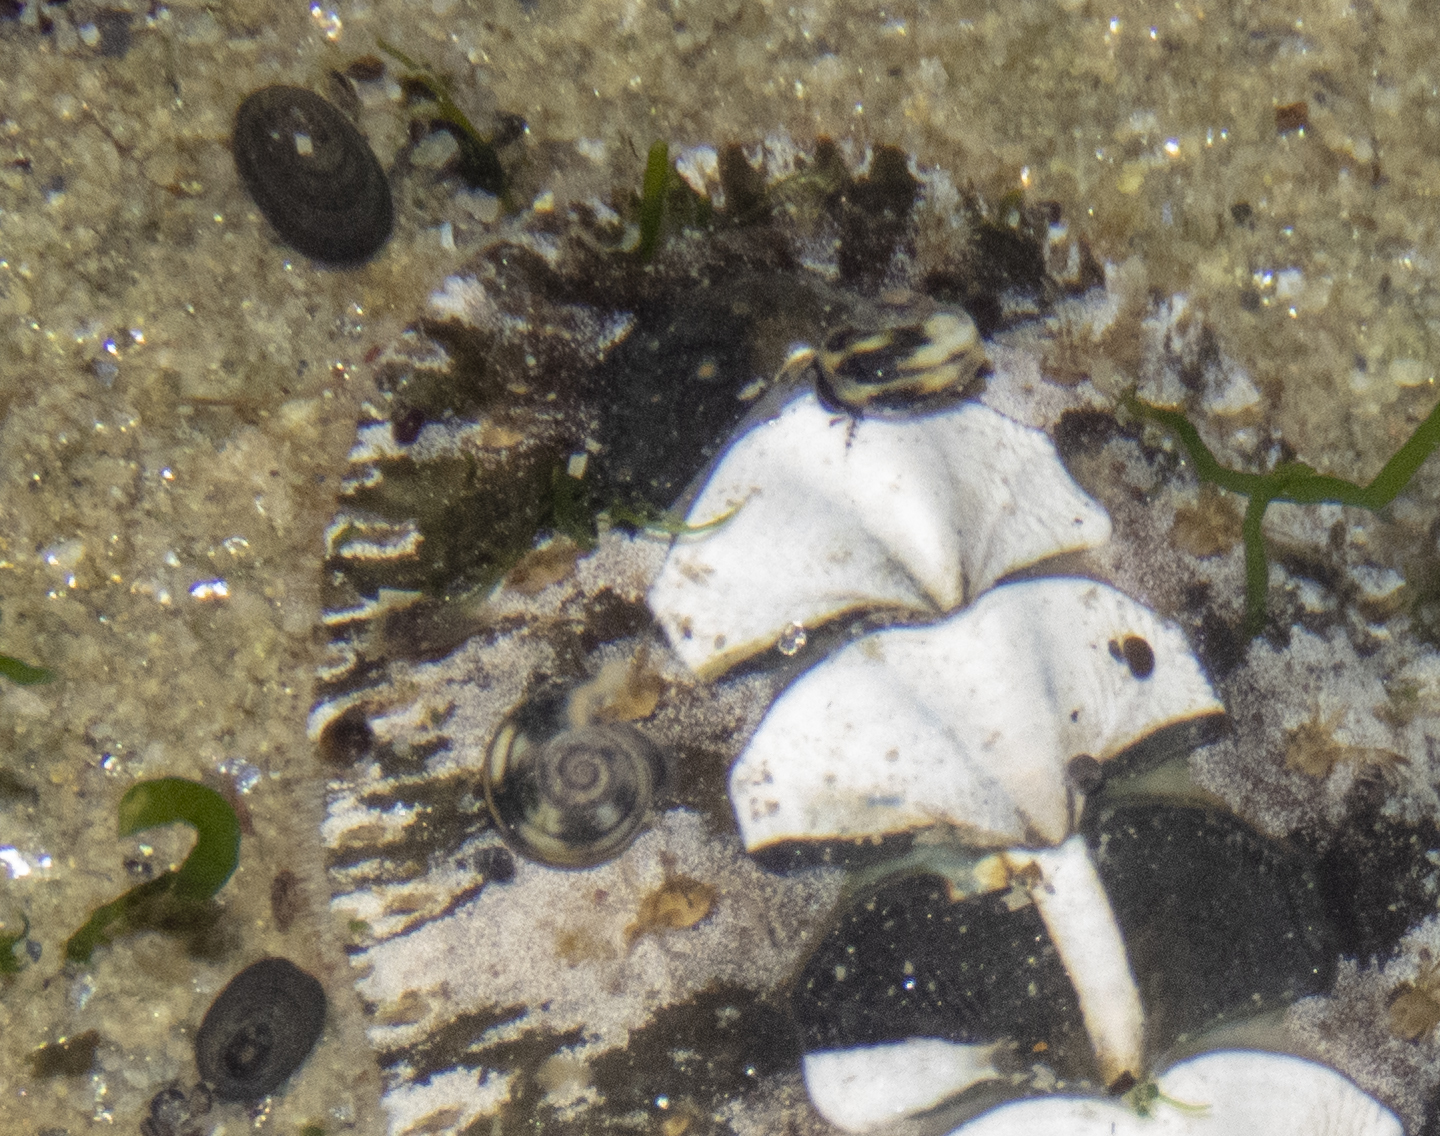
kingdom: Animalia
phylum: Mollusca
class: Gastropoda
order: Littorinimorpha
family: Littorinidae
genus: Risellopsis
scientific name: Risellopsis varia
